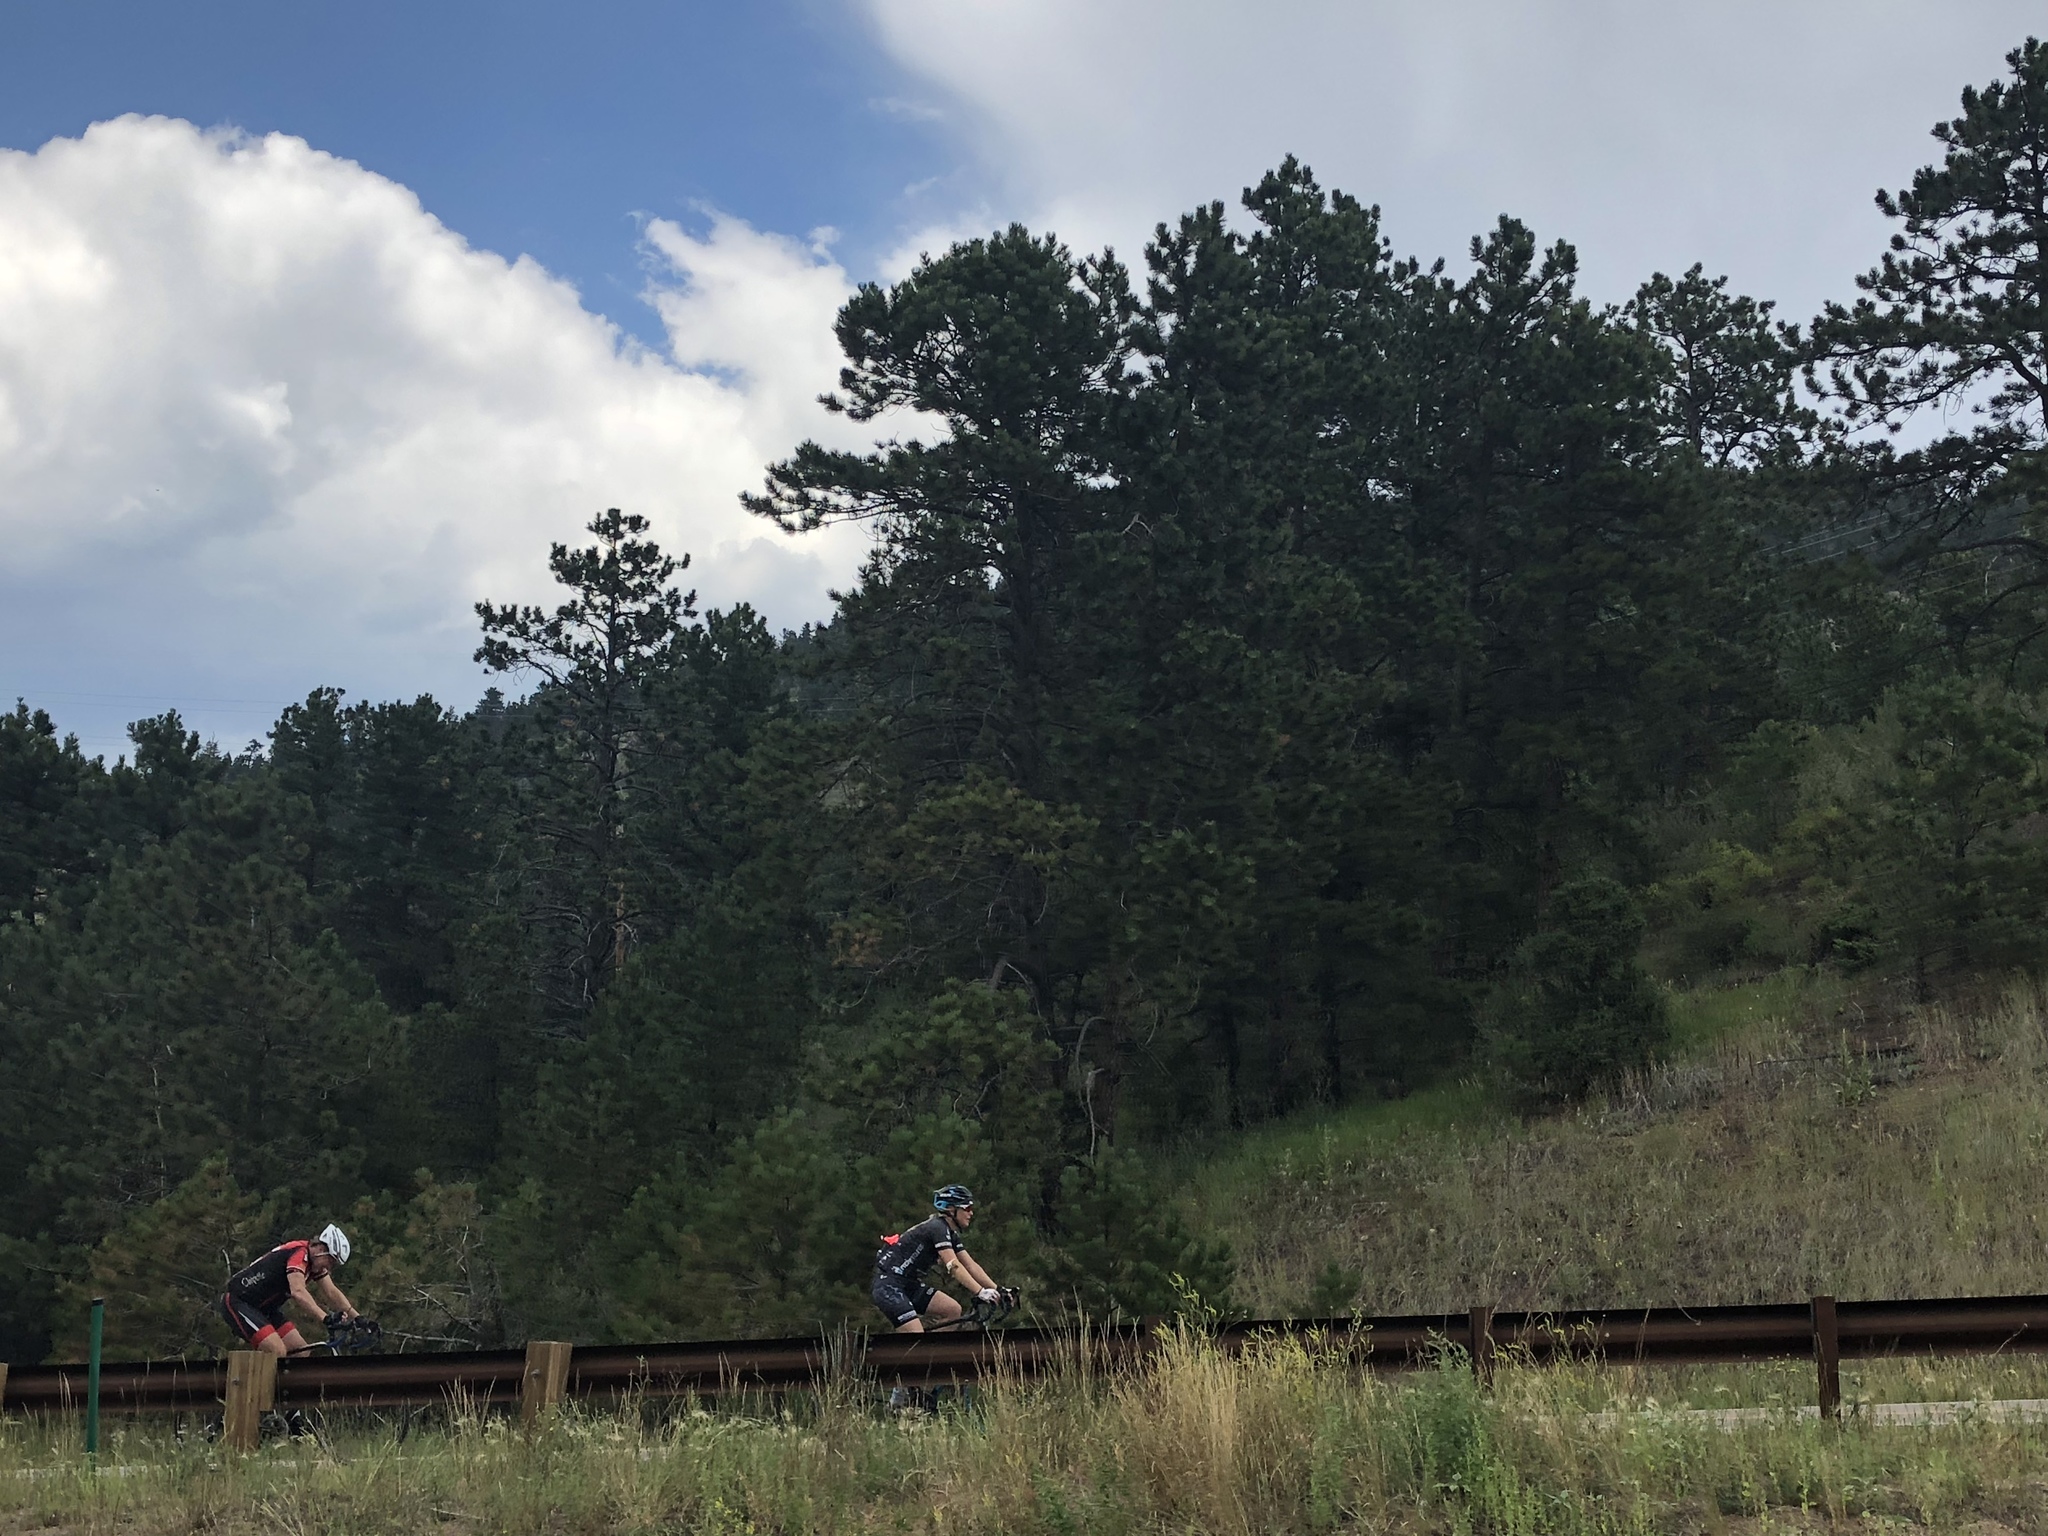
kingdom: Plantae
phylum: Tracheophyta
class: Pinopsida
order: Pinales
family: Pinaceae
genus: Pinus
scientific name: Pinus ponderosa
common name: Western yellow-pine
